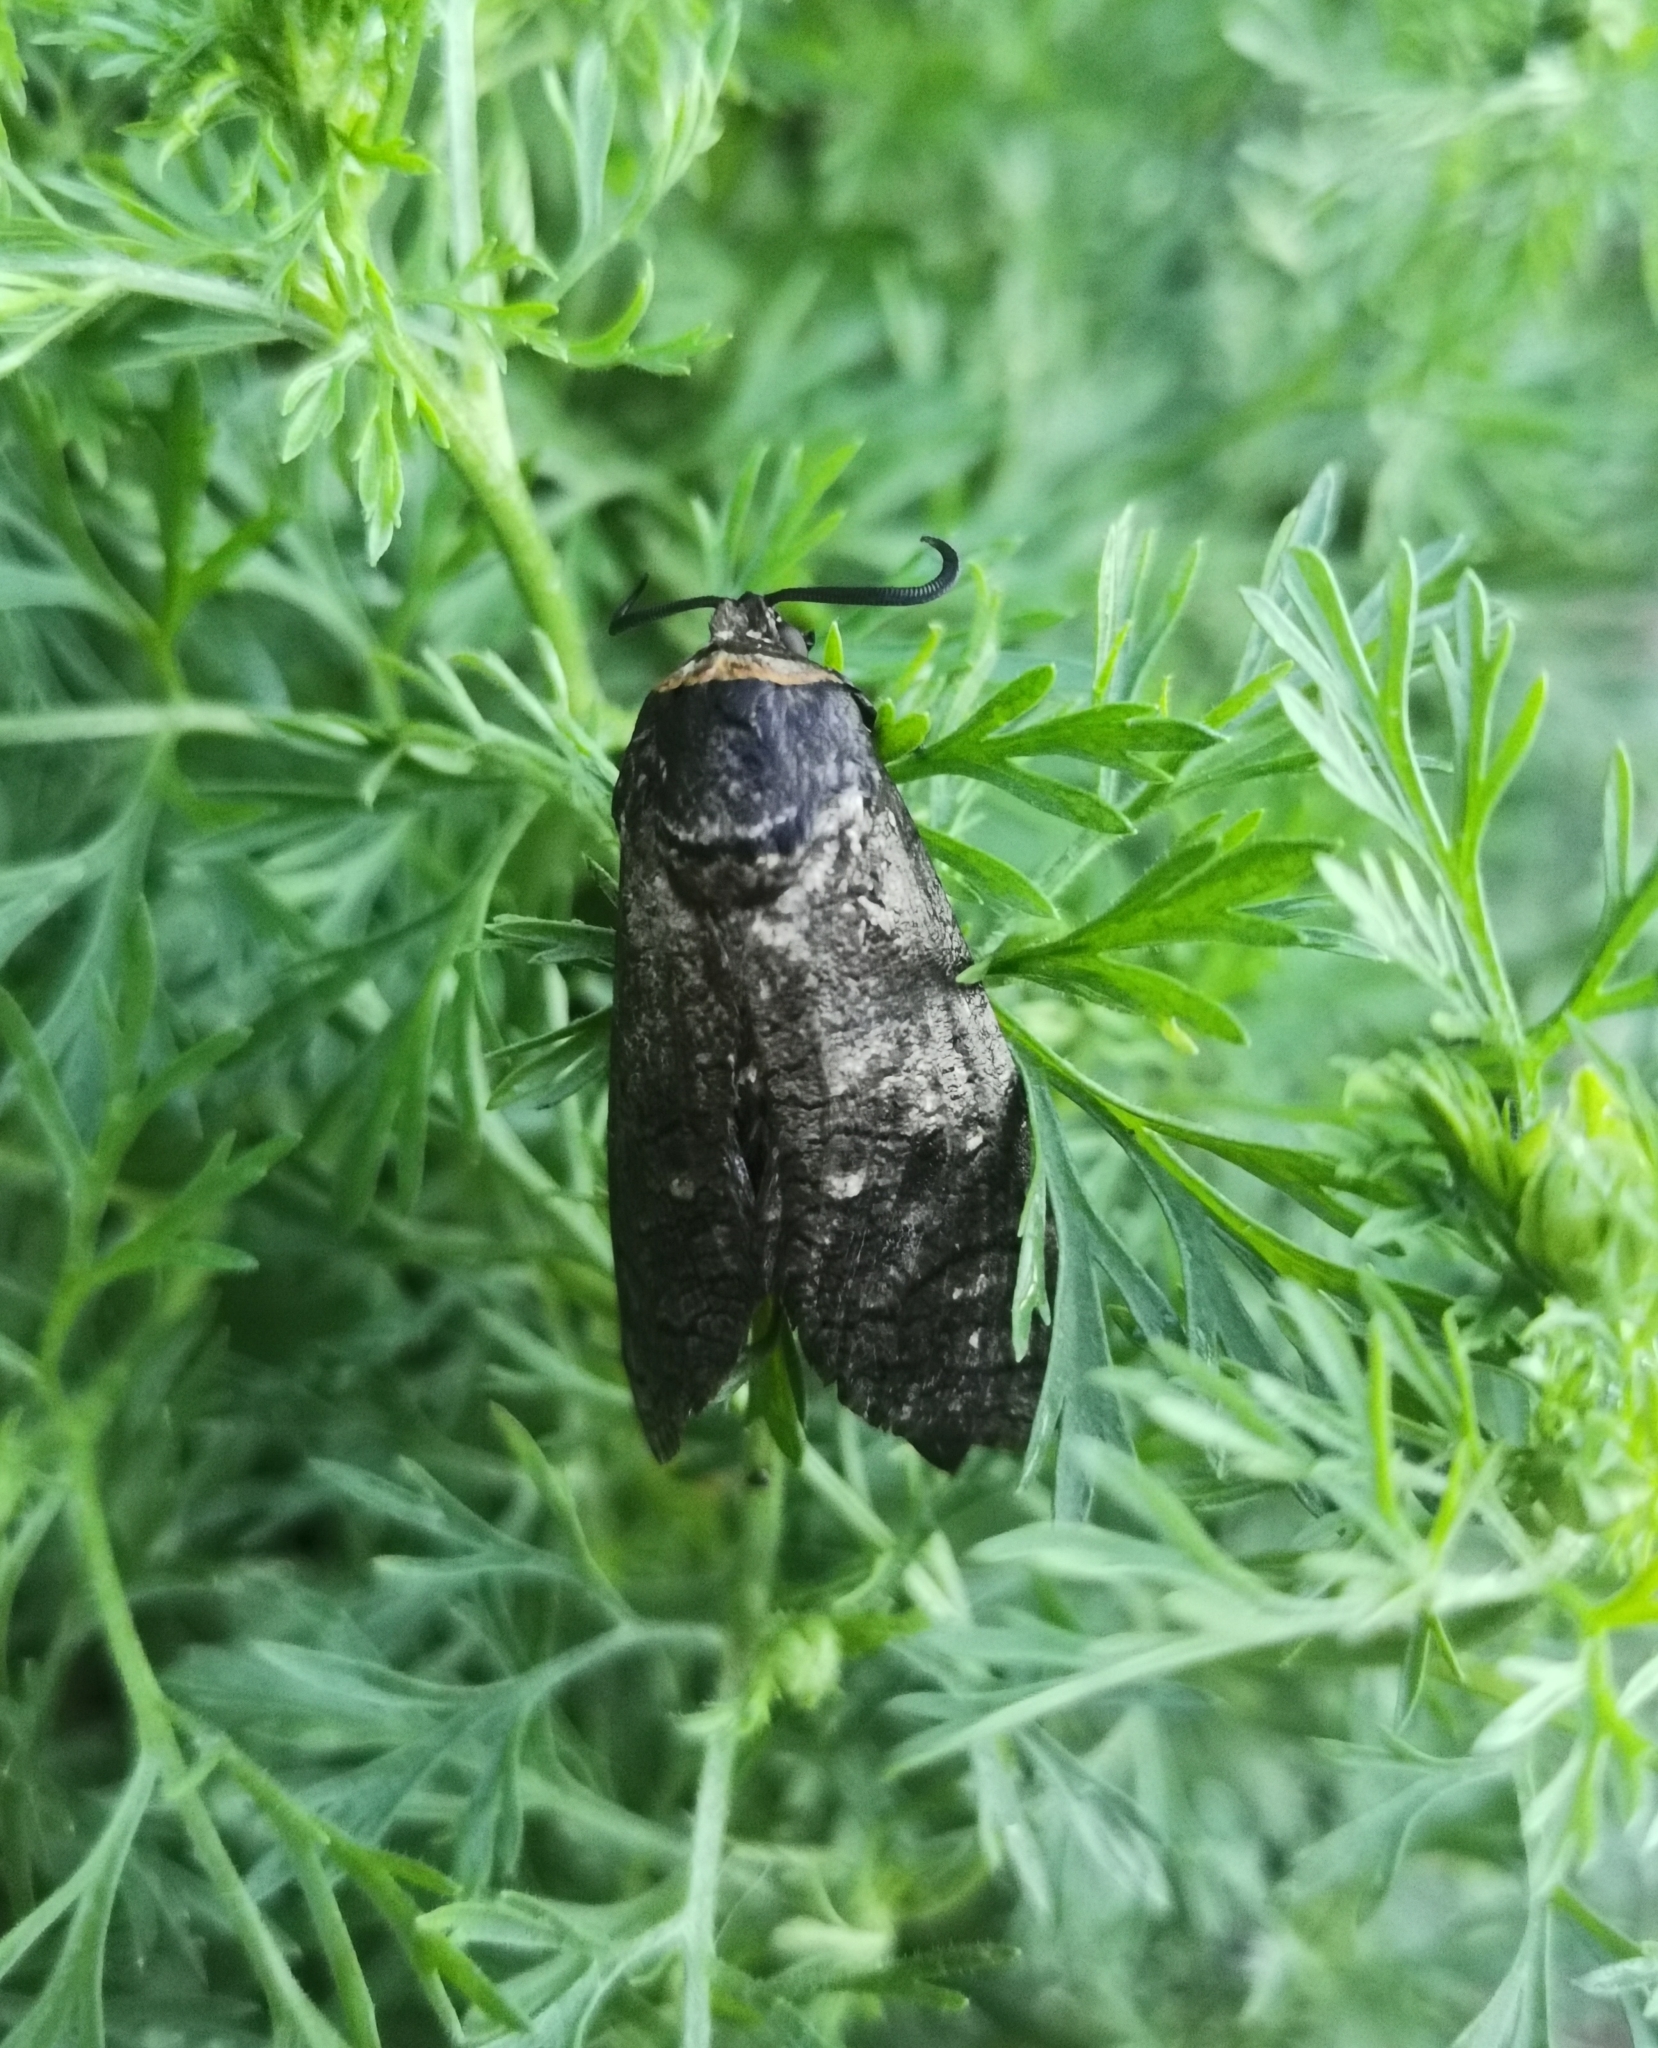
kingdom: Animalia
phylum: Arthropoda
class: Insecta
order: Lepidoptera
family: Cossidae
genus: Cossus
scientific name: Cossus cossus
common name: Goat moth
